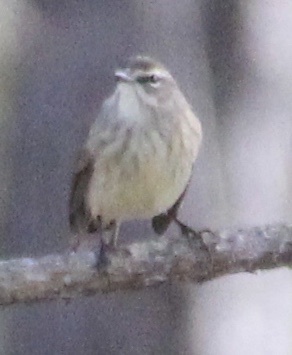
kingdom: Animalia
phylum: Chordata
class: Aves
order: Passeriformes
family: Parulidae
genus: Setophaga
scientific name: Setophaga palmarum
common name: Palm warbler
